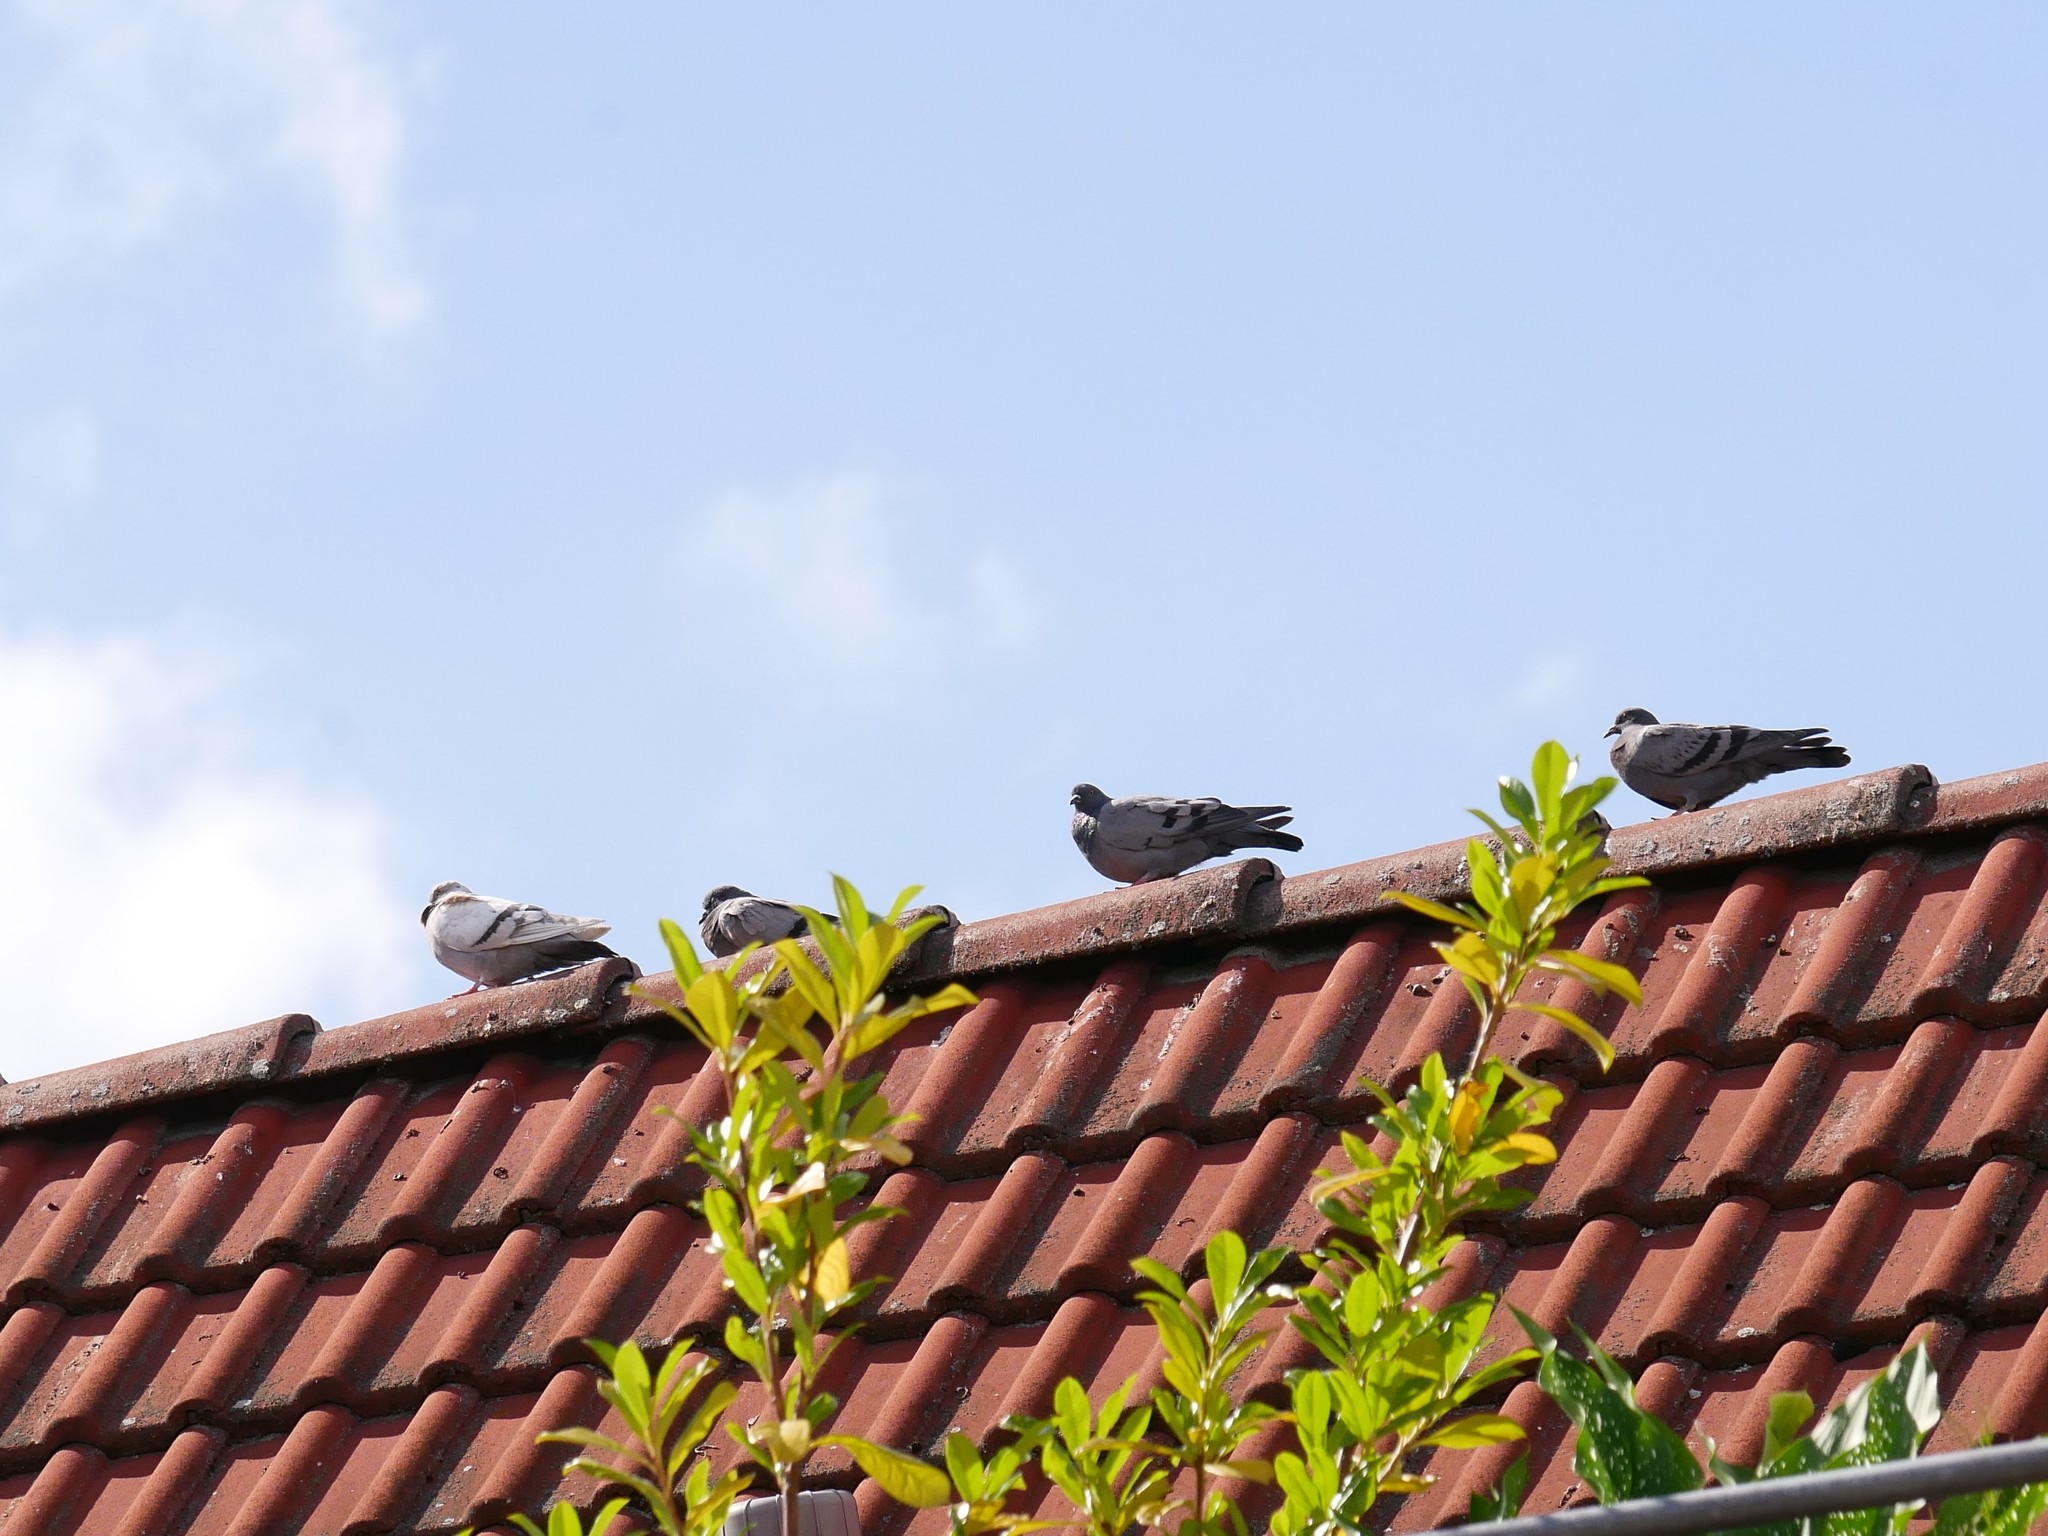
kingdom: Animalia
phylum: Chordata
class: Aves
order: Columbiformes
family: Columbidae
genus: Columba
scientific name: Columba livia
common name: Rock pigeon
